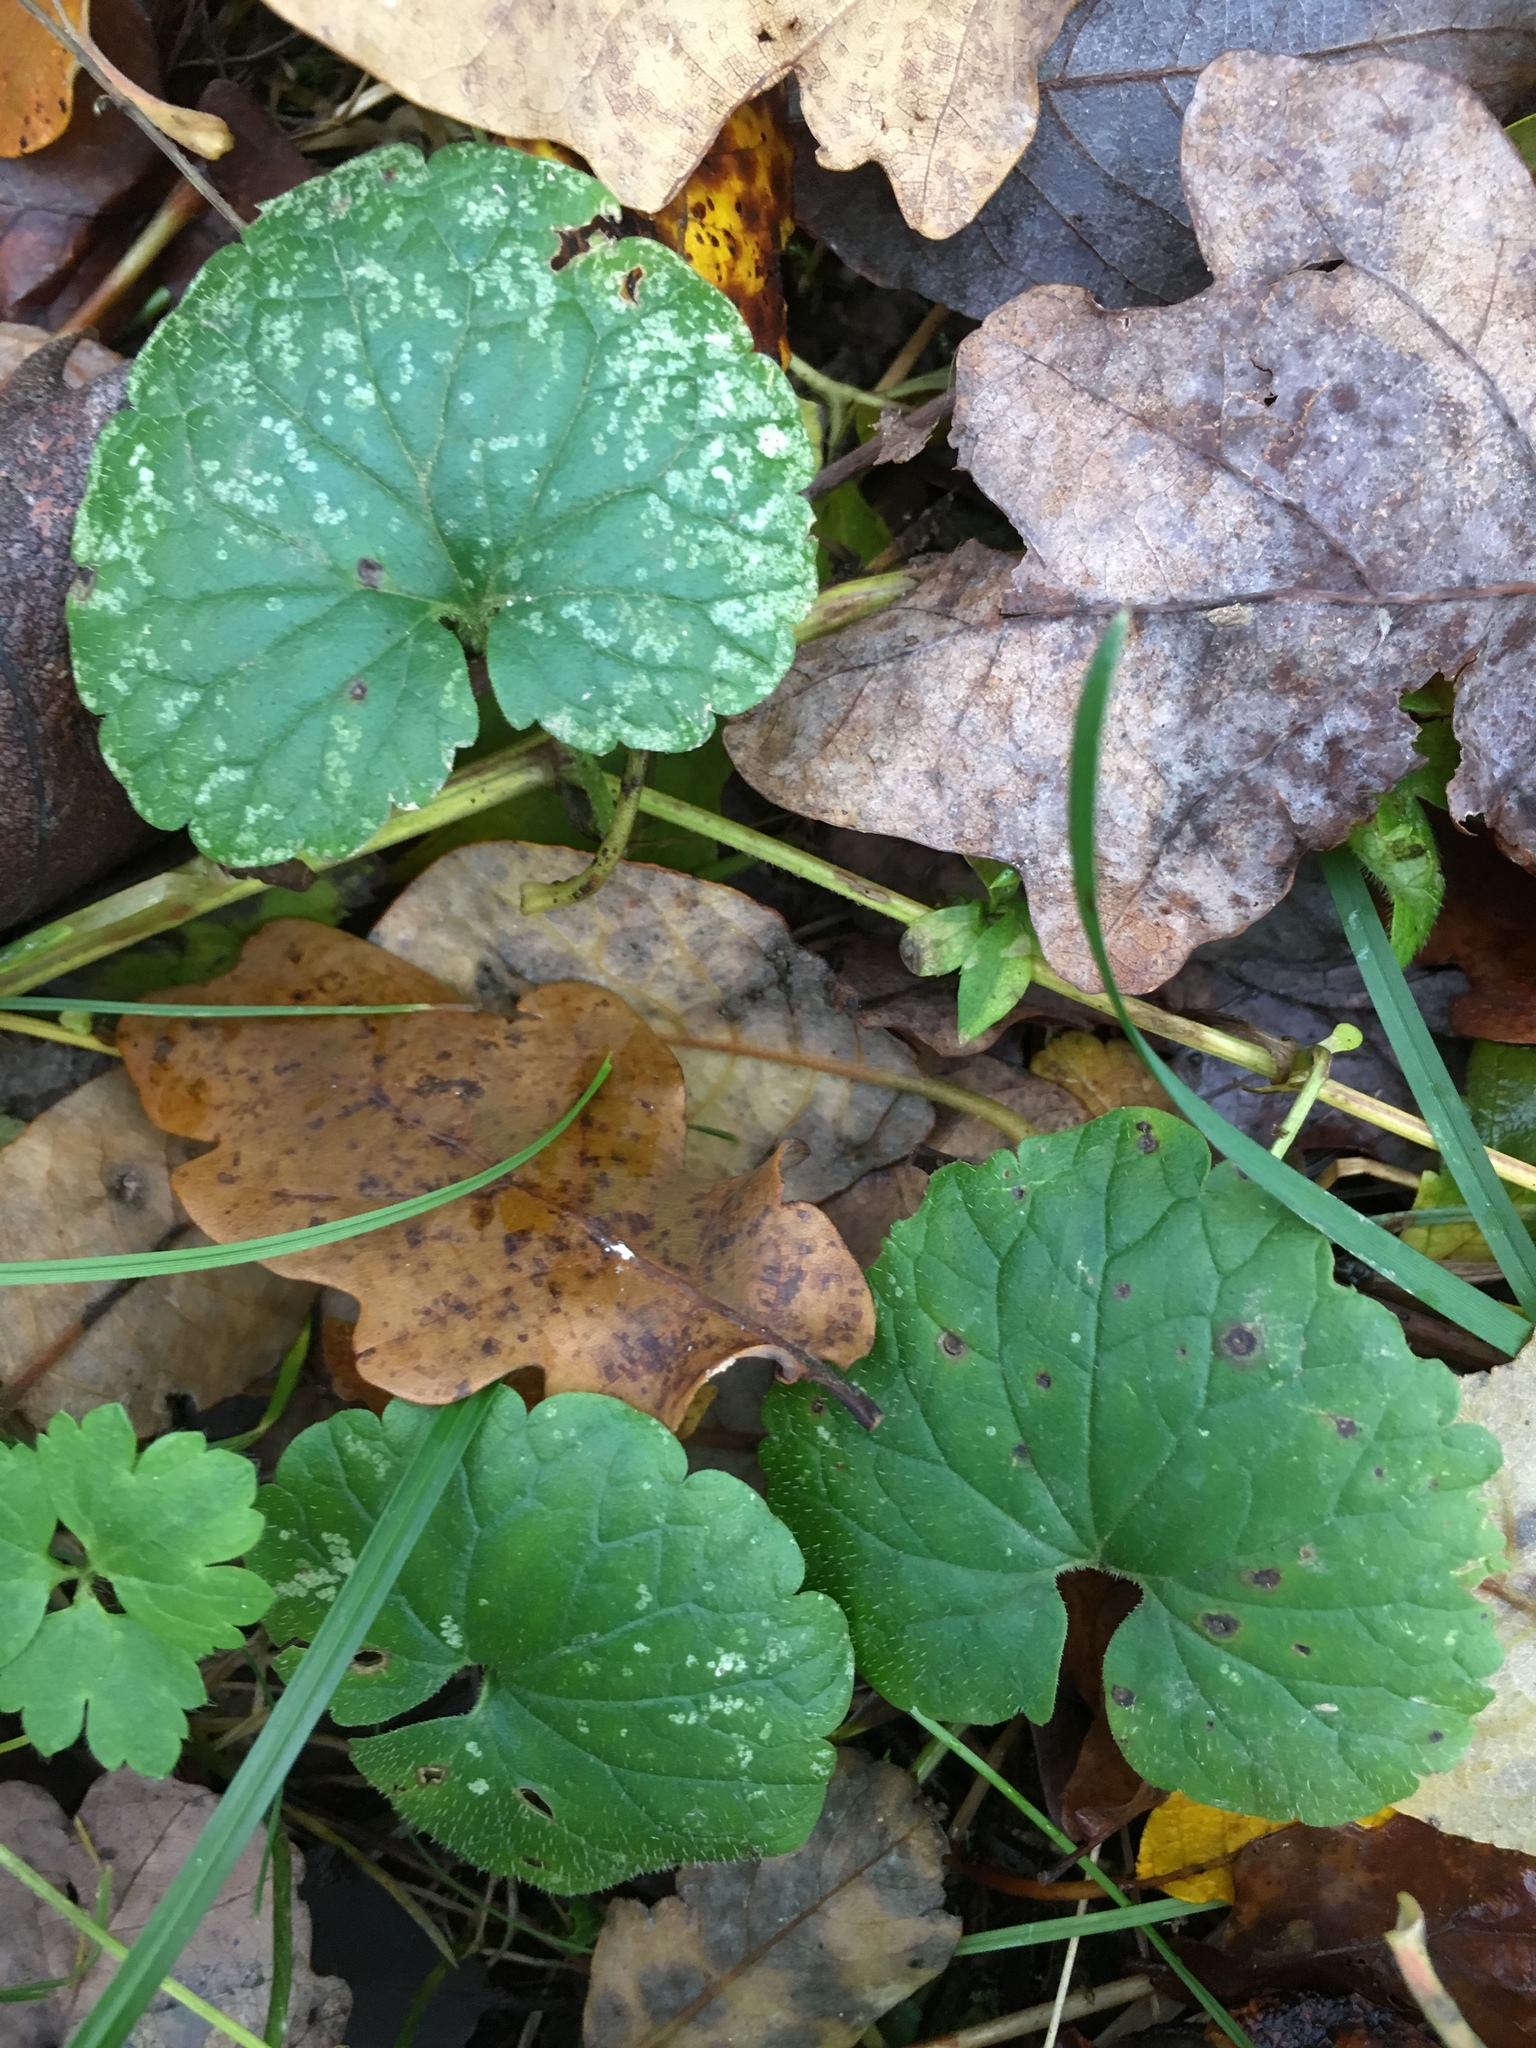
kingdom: Plantae
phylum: Tracheophyta
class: Magnoliopsida
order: Lamiales
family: Lamiaceae
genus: Glechoma
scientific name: Glechoma hederacea
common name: Ground ivy
